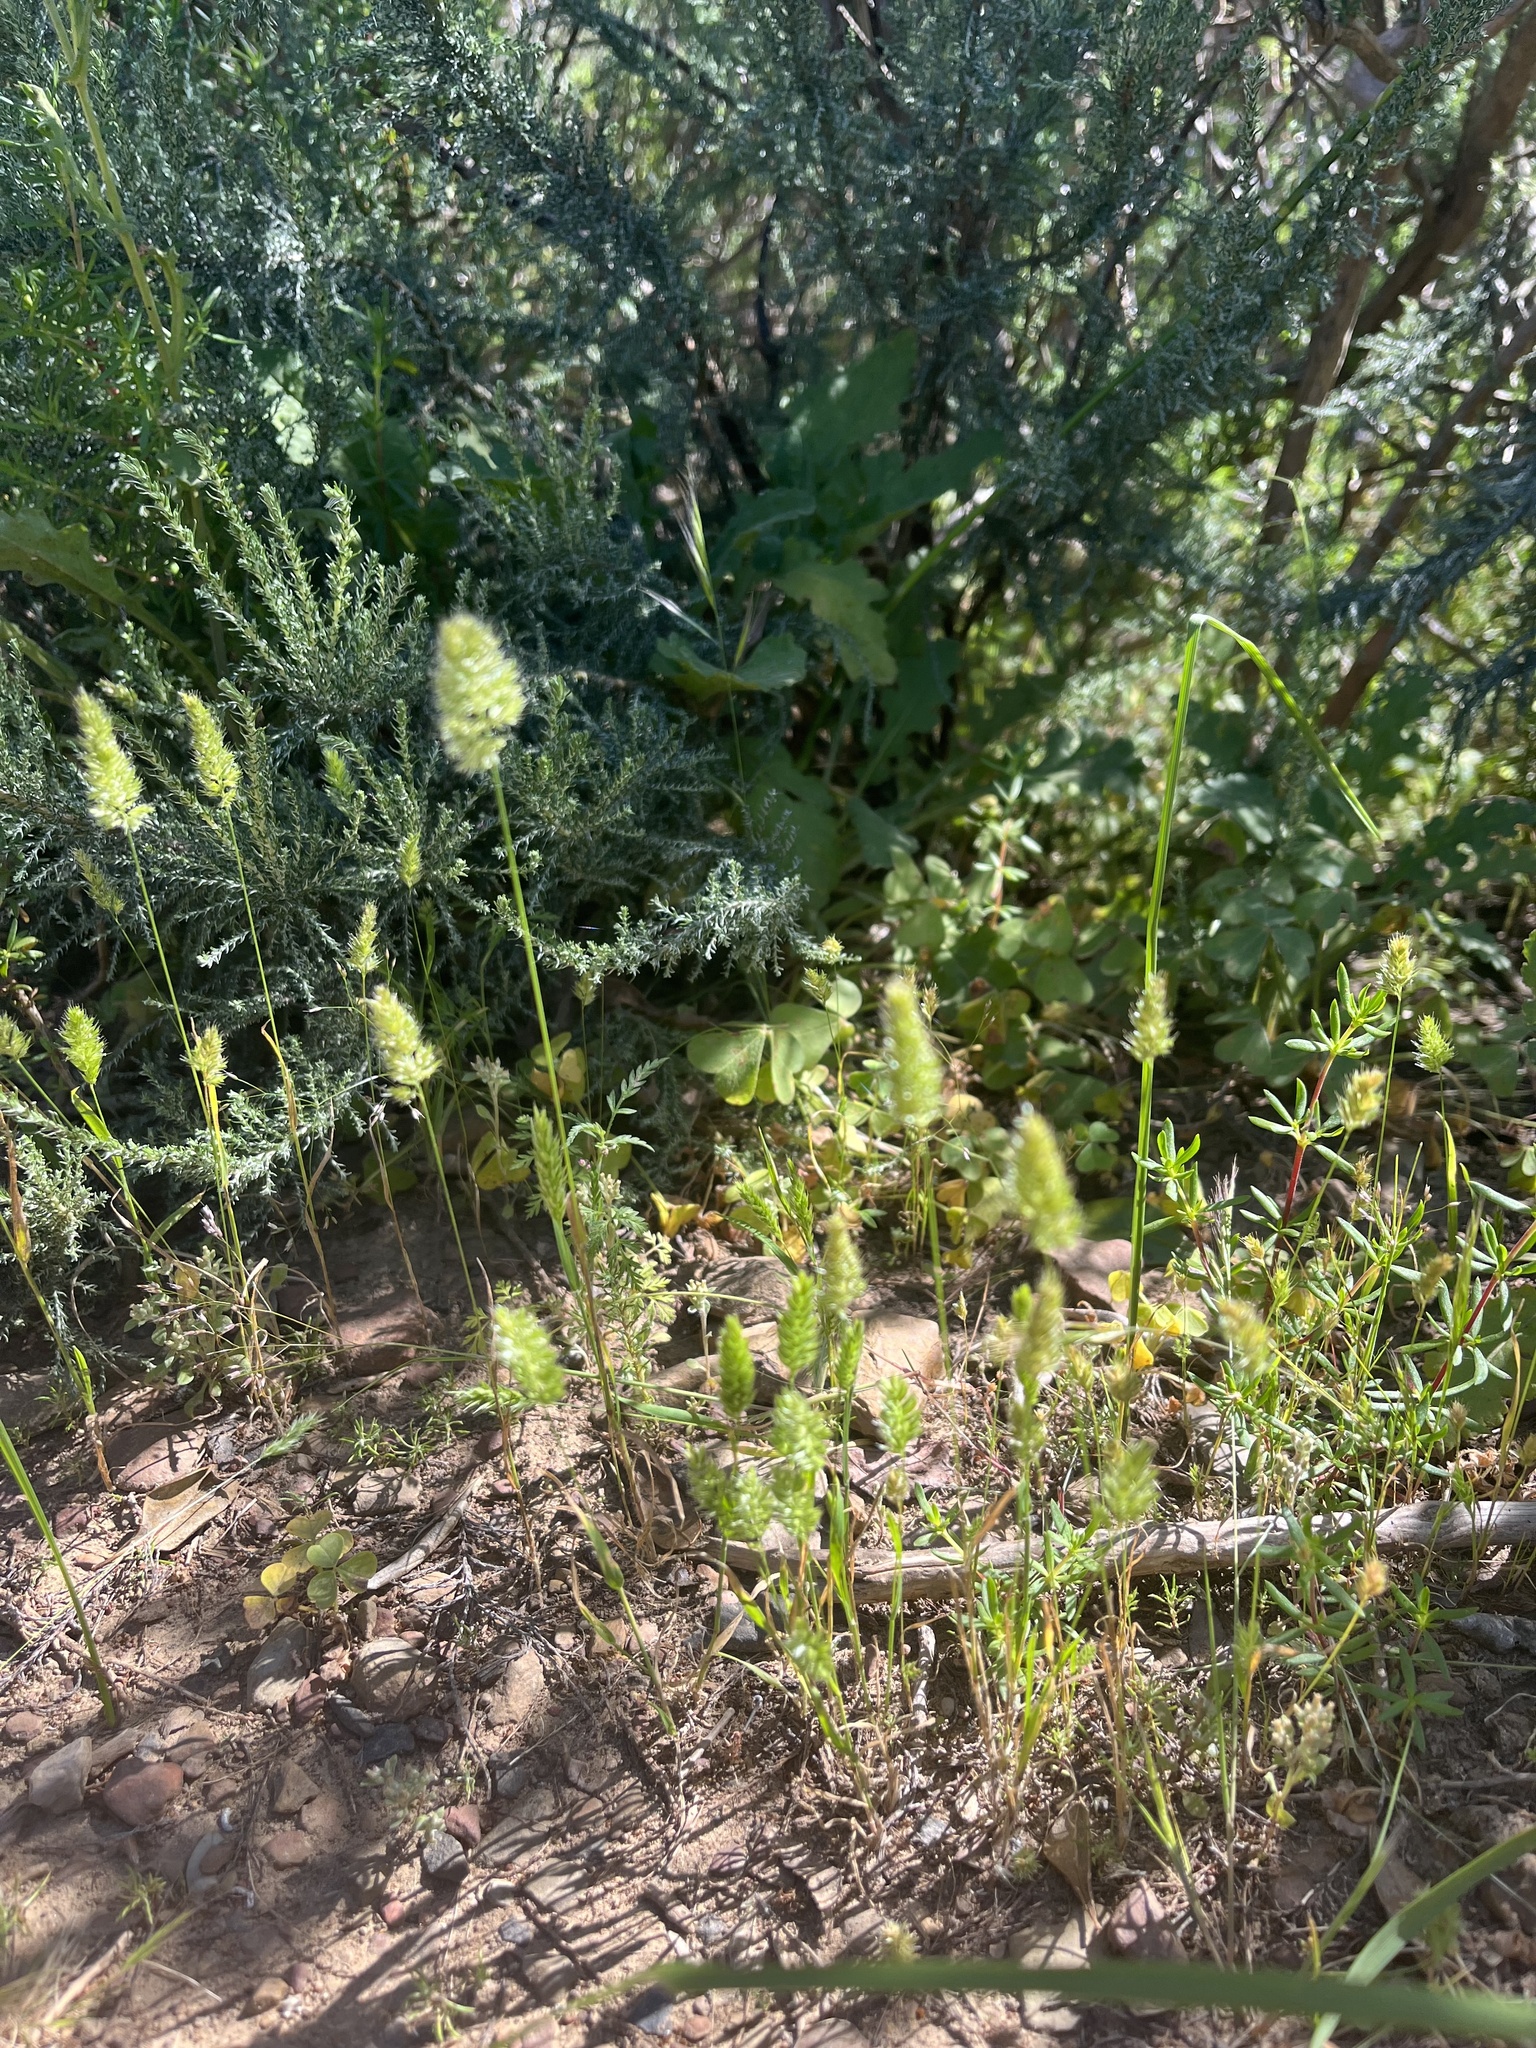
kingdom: Plantae
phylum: Tracheophyta
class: Liliopsida
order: Poales
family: Poaceae
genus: Rostraria
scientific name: Rostraria cristata
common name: Mediterranean hair-grass
